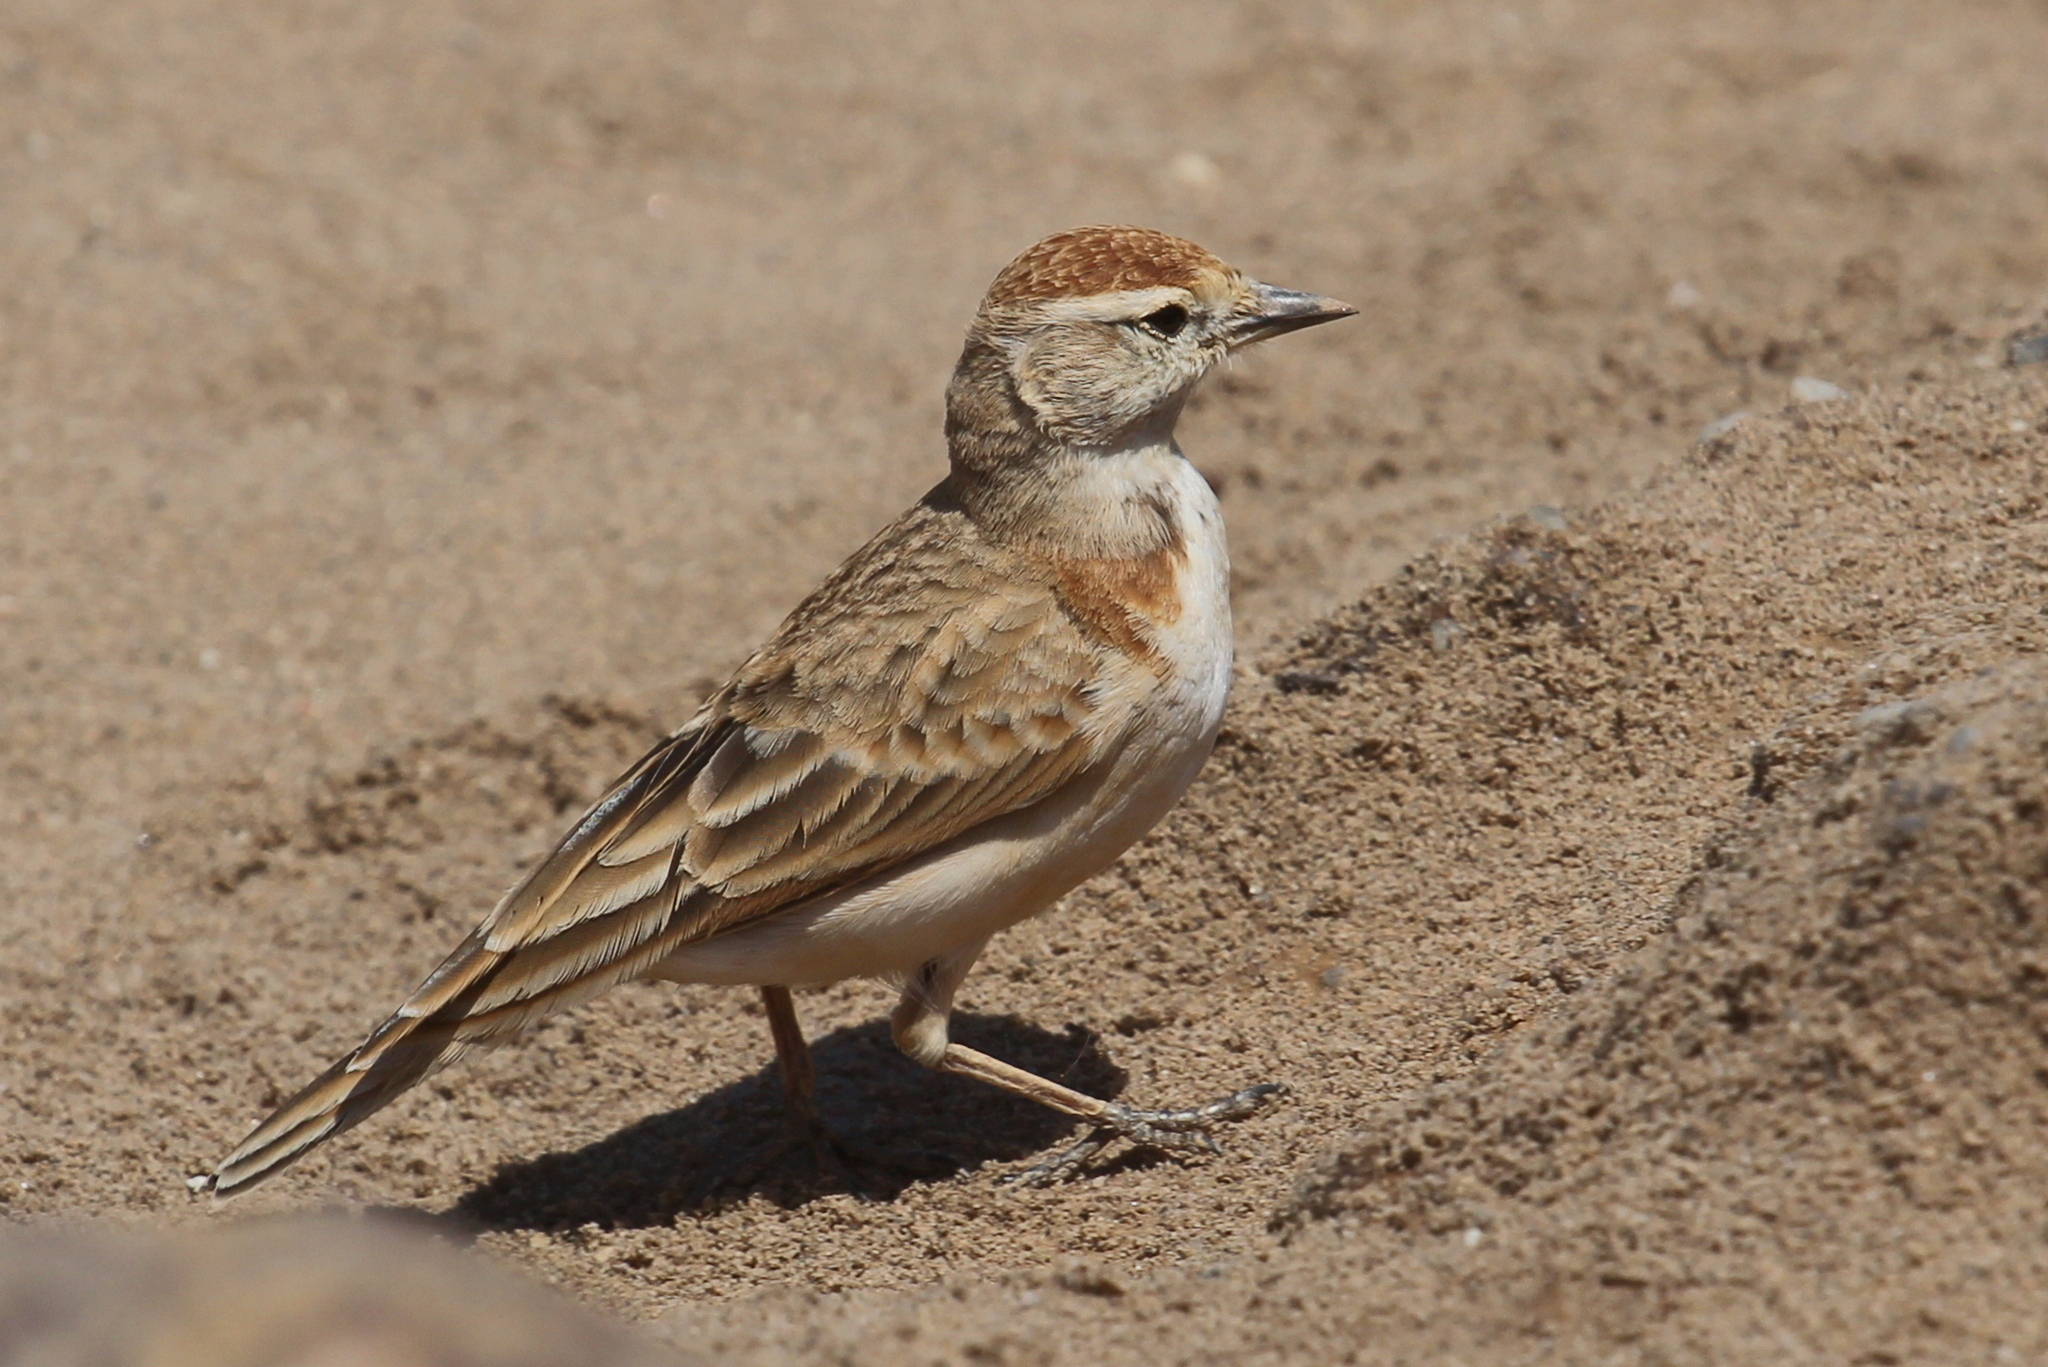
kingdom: Animalia
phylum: Chordata
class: Aves
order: Passeriformes
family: Alaudidae
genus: Calandrella
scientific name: Calandrella cinerea
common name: Red-capped lark
